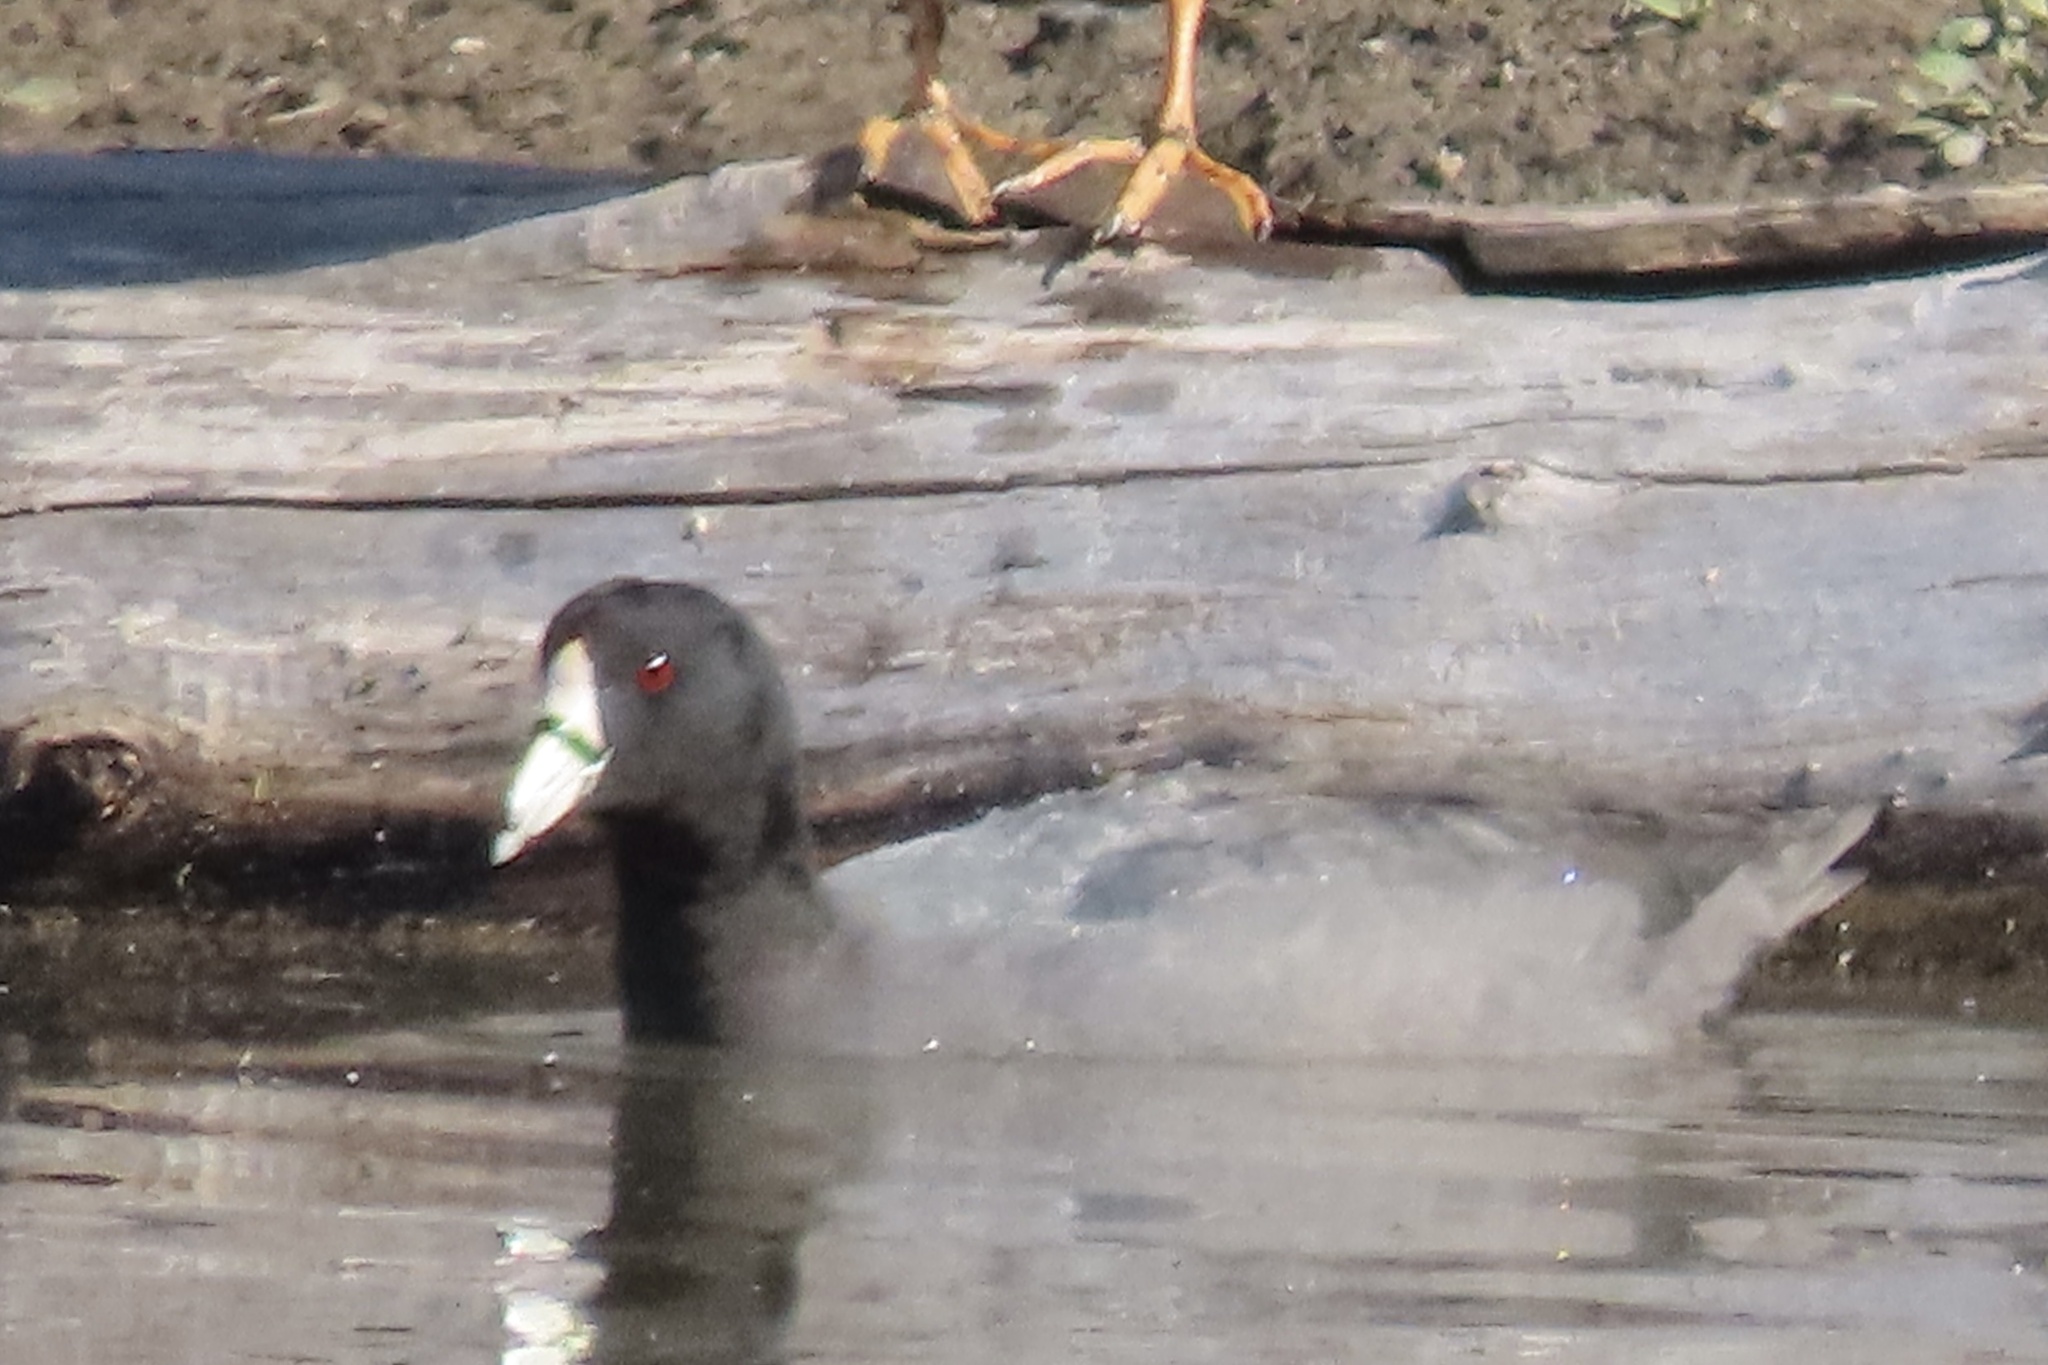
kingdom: Animalia
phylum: Chordata
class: Aves
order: Gruiformes
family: Rallidae
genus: Fulica
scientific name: Fulica americana
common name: American coot
